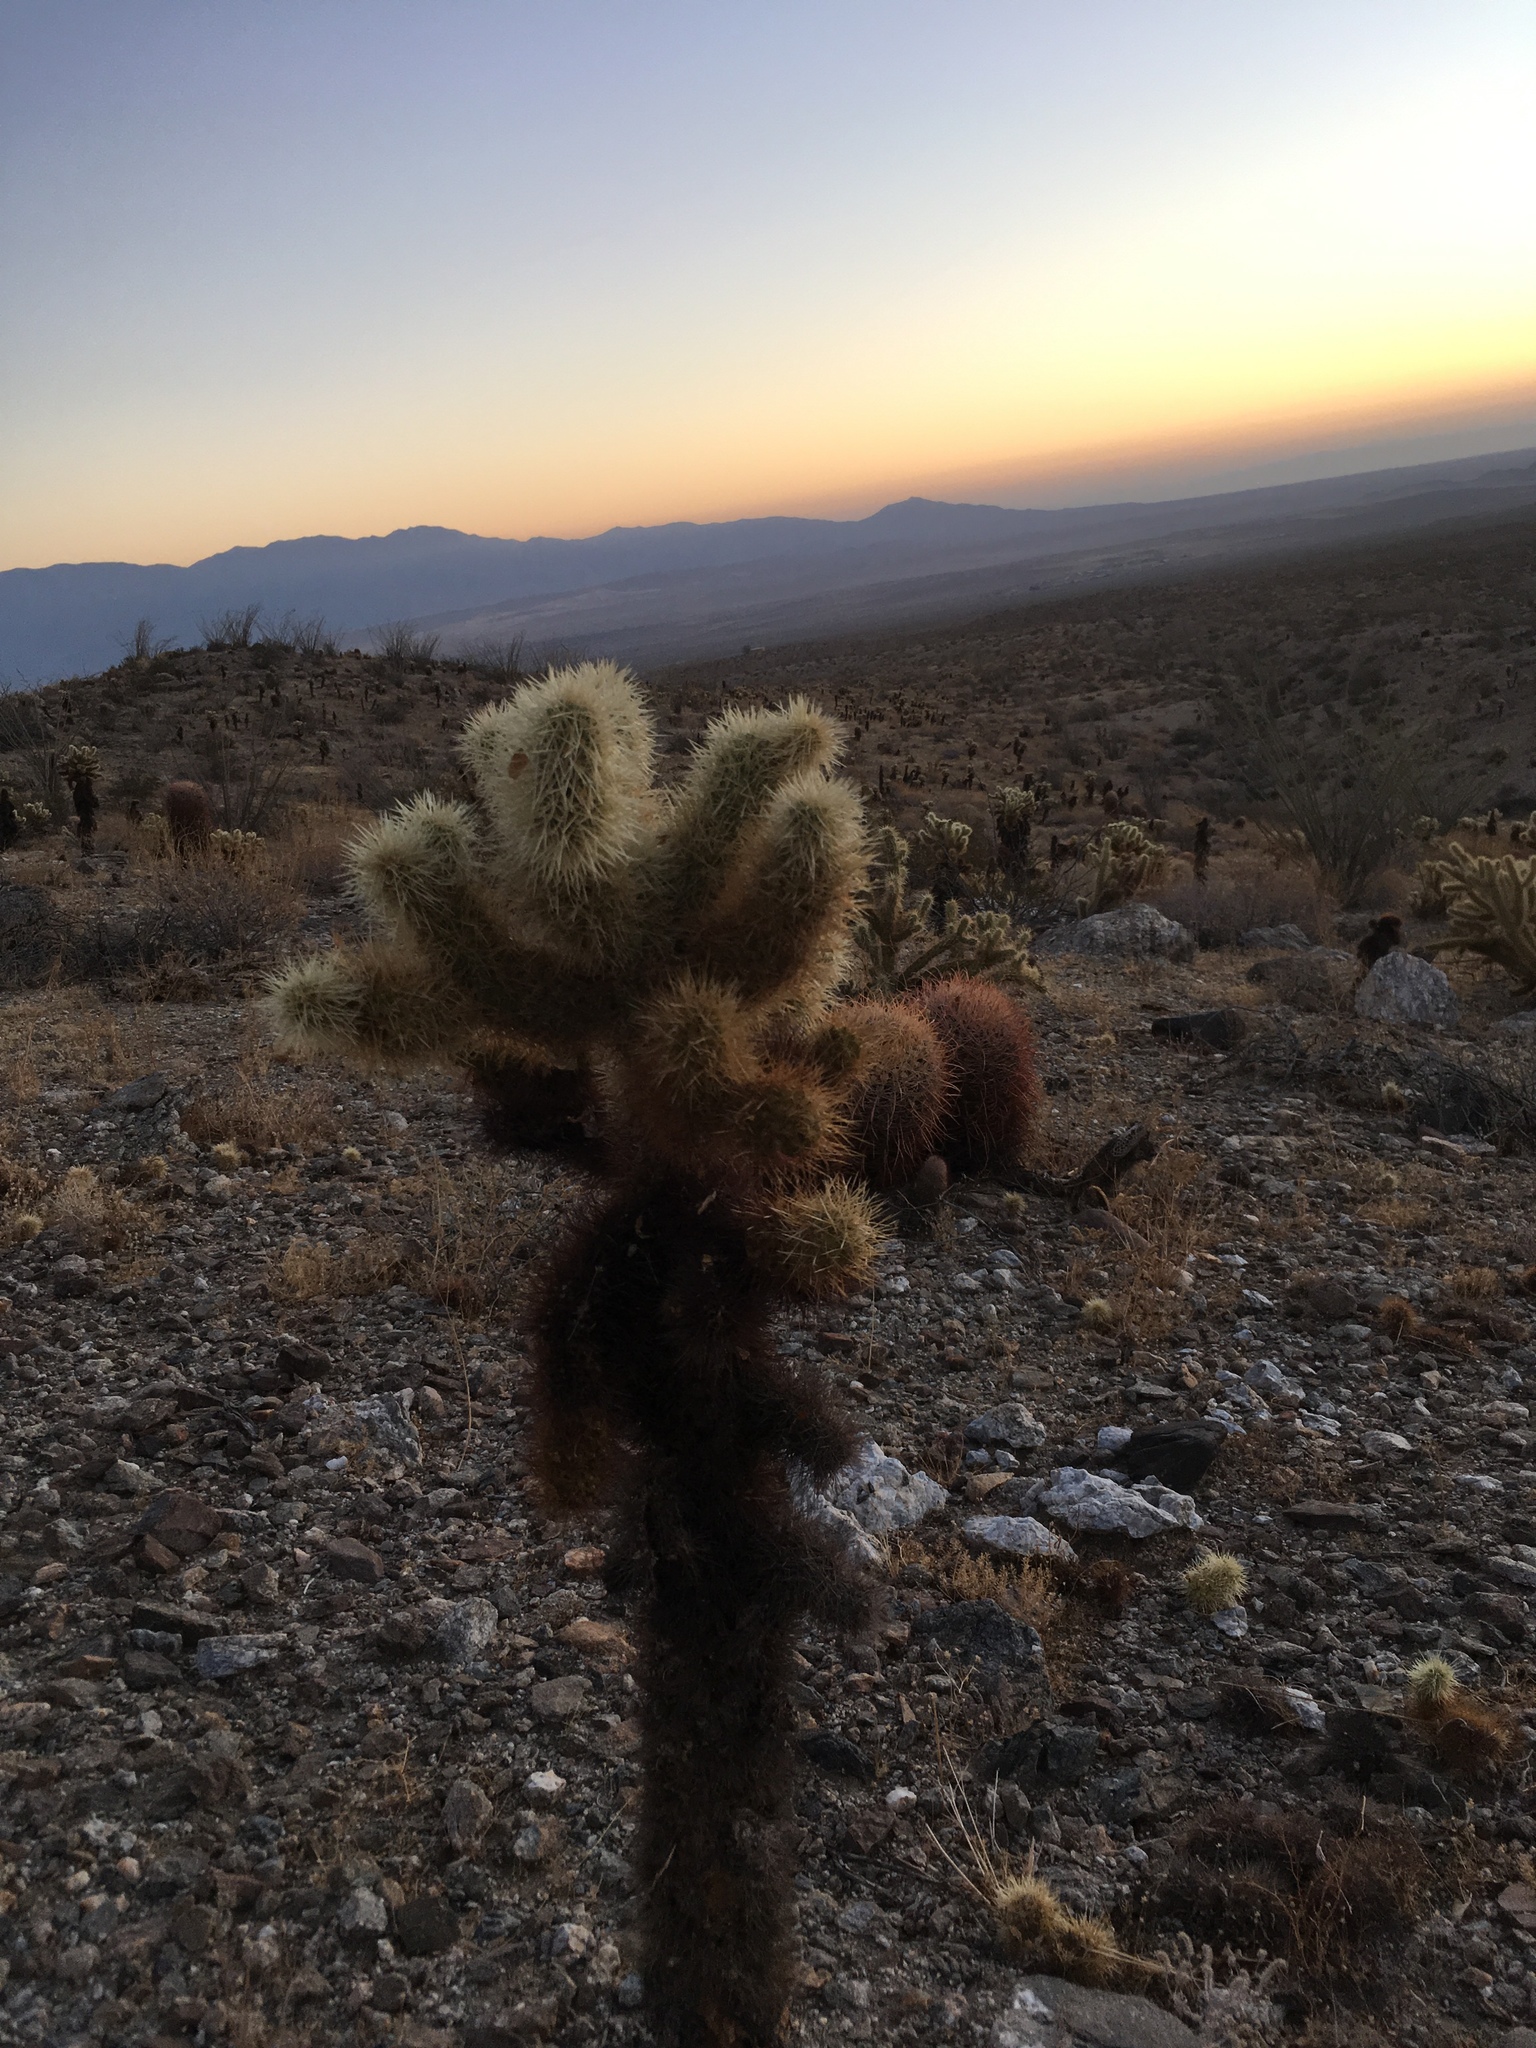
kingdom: Plantae
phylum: Tracheophyta
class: Magnoliopsida
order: Caryophyllales
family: Cactaceae
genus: Cylindropuntia
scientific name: Cylindropuntia fosbergii
